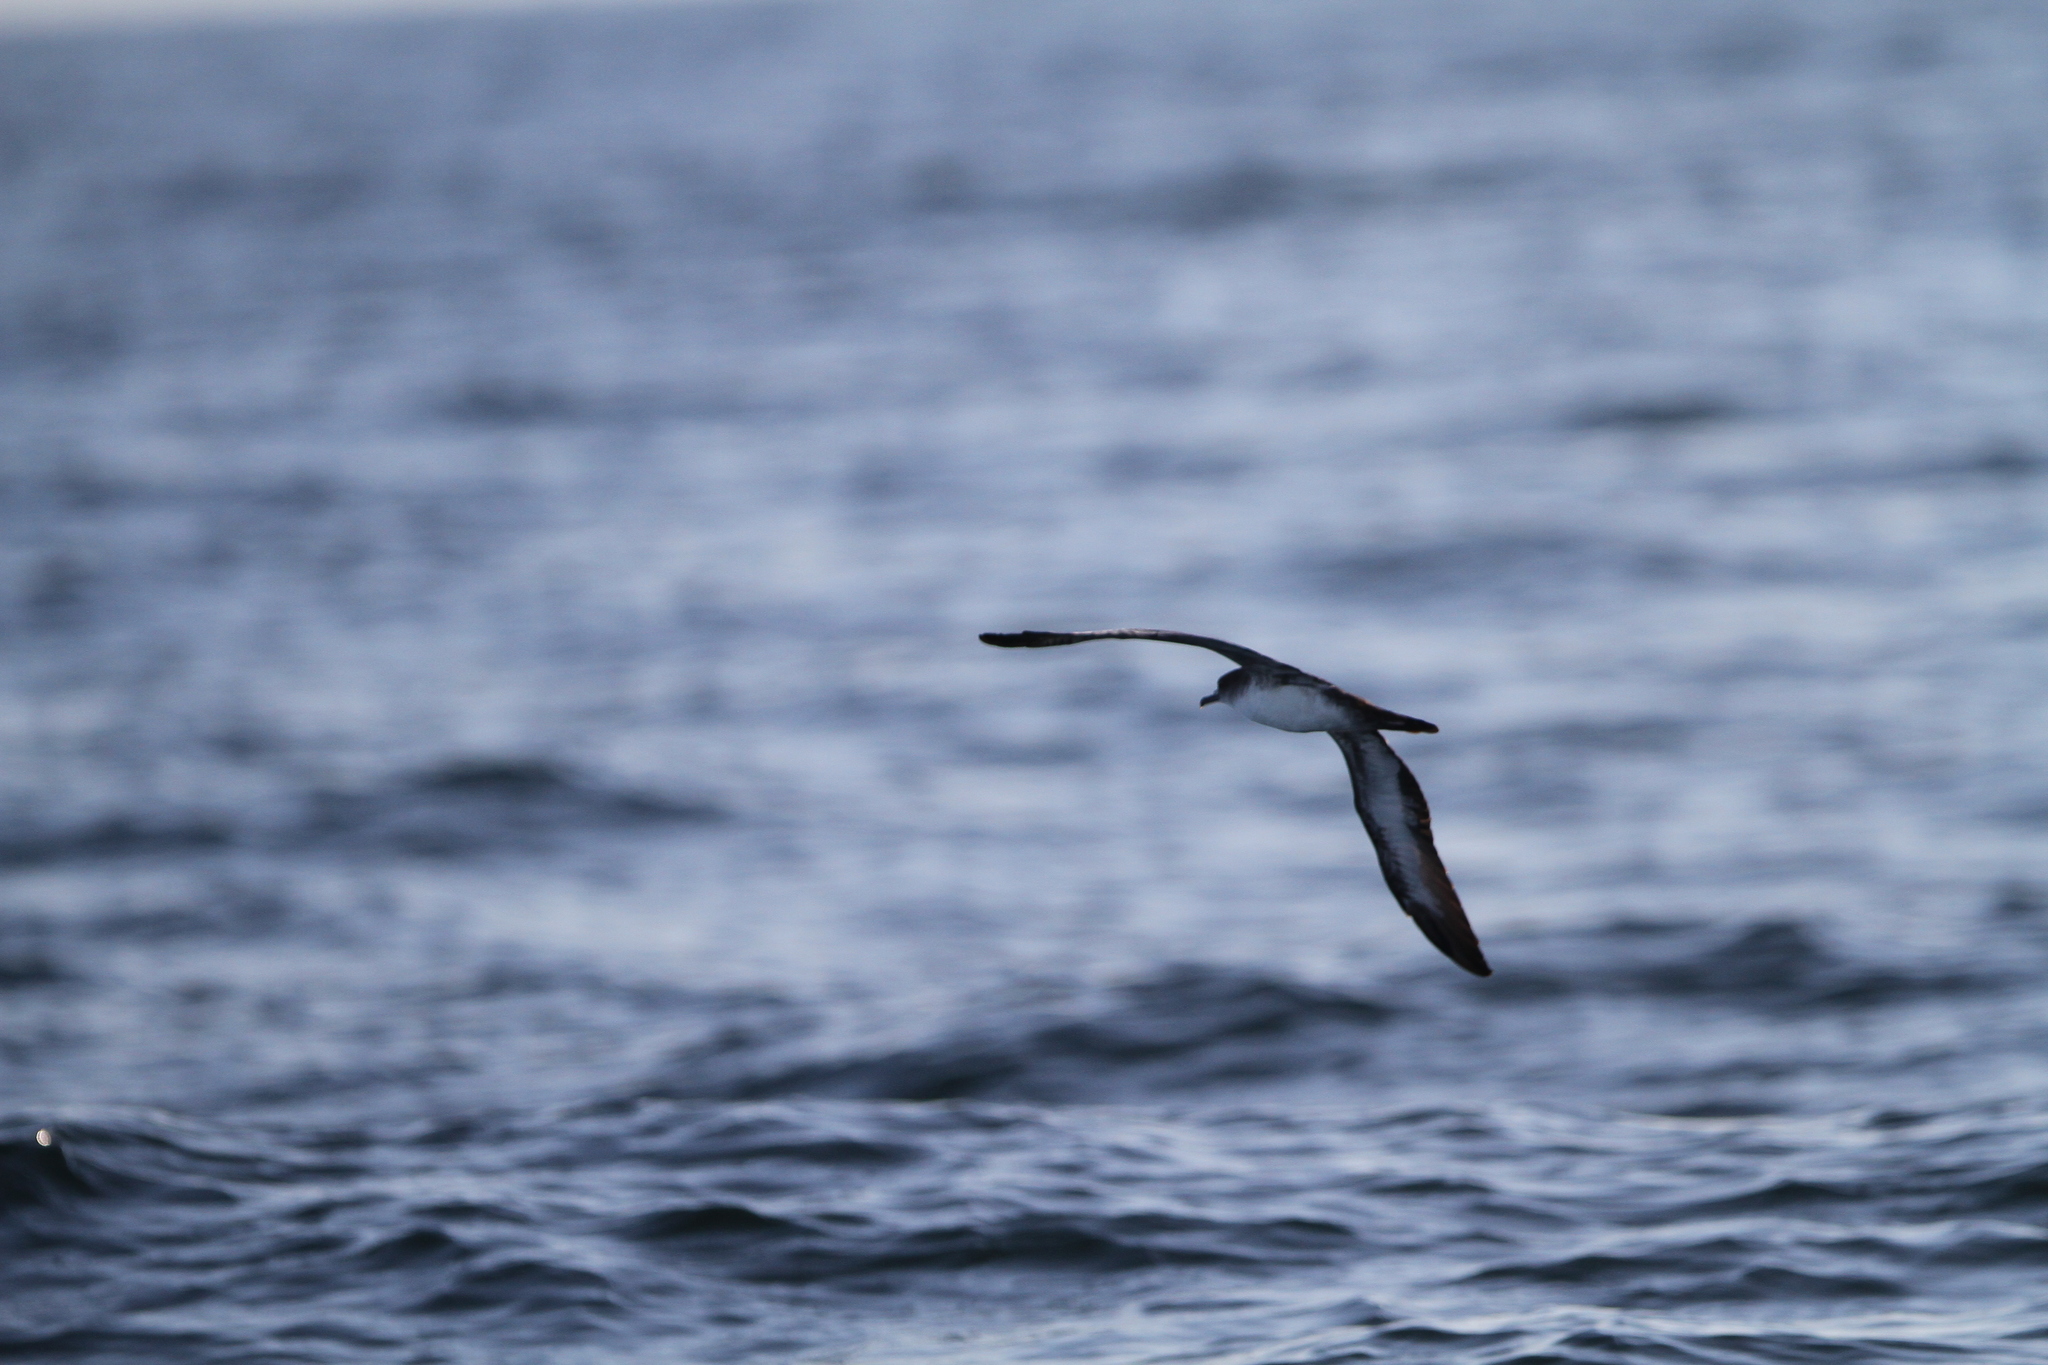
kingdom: Animalia
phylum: Chordata
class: Aves
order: Procellariiformes
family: Procellariidae
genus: Puffinus
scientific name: Puffinus pacificus
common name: Wedge-tailed shearwater
